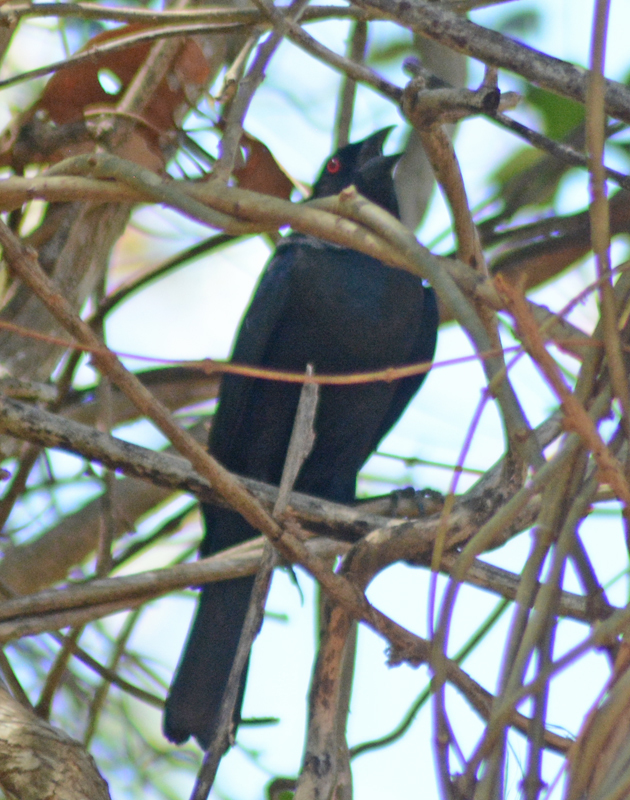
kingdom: Animalia
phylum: Chordata
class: Aves
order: Passeriformes
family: Icteridae
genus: Molothrus
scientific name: Molothrus aeneus
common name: Bronzed cowbird
